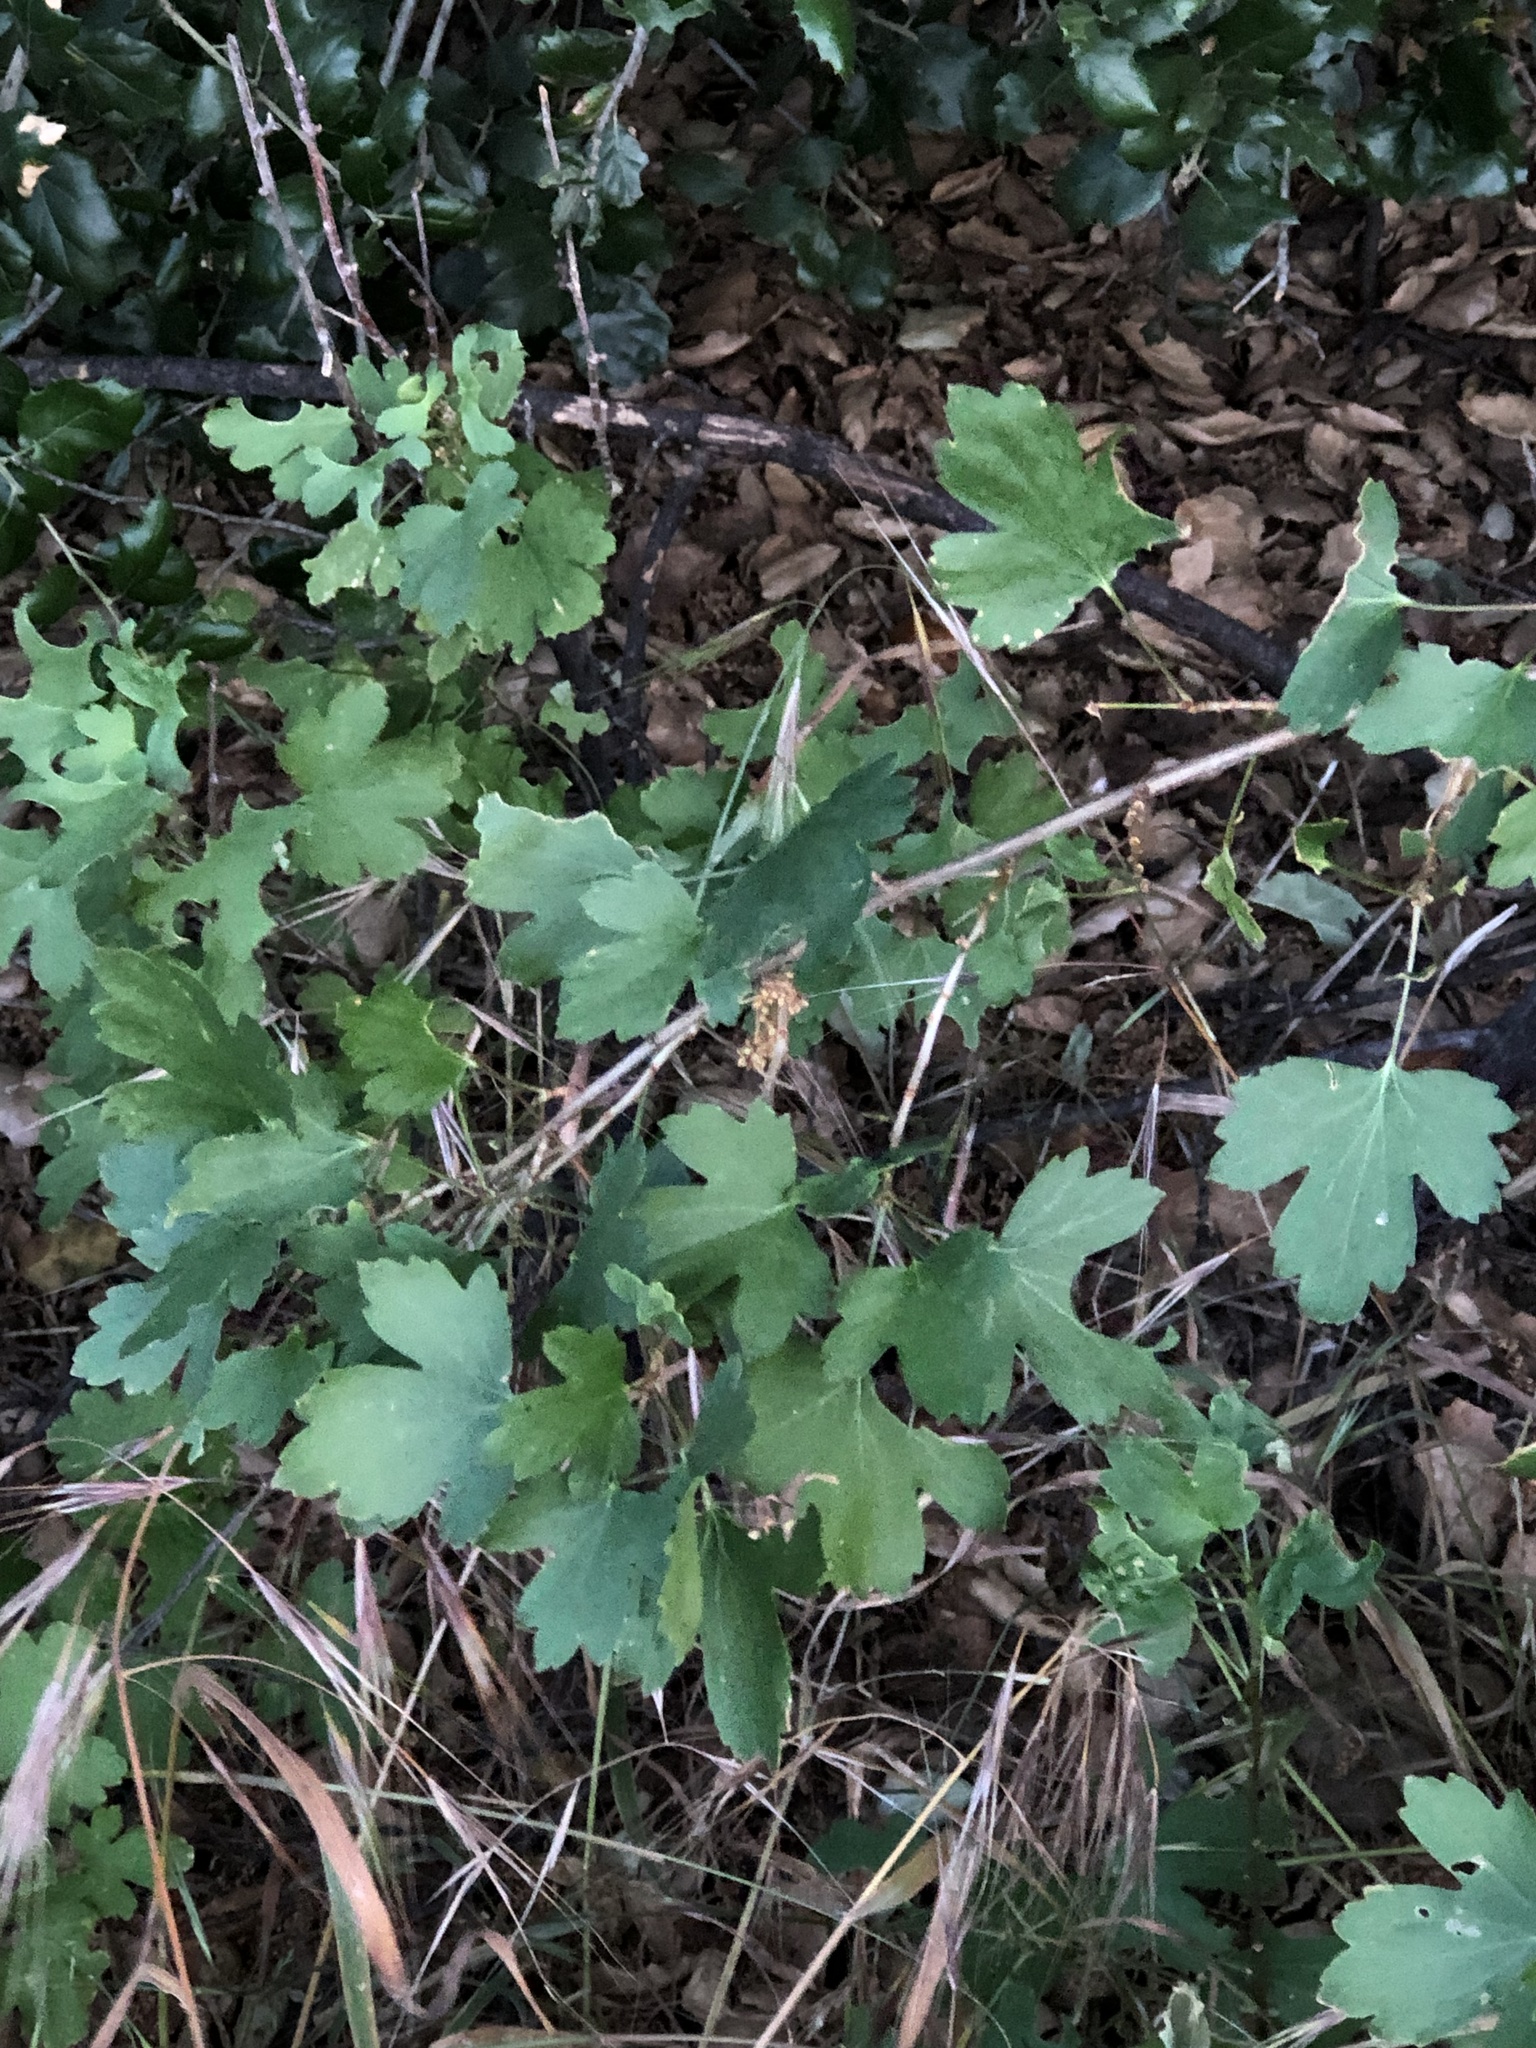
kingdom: Plantae
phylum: Tracheophyta
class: Magnoliopsida
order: Saxifragales
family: Grossulariaceae
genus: Ribes
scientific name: Ribes aureum
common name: Golden currant
